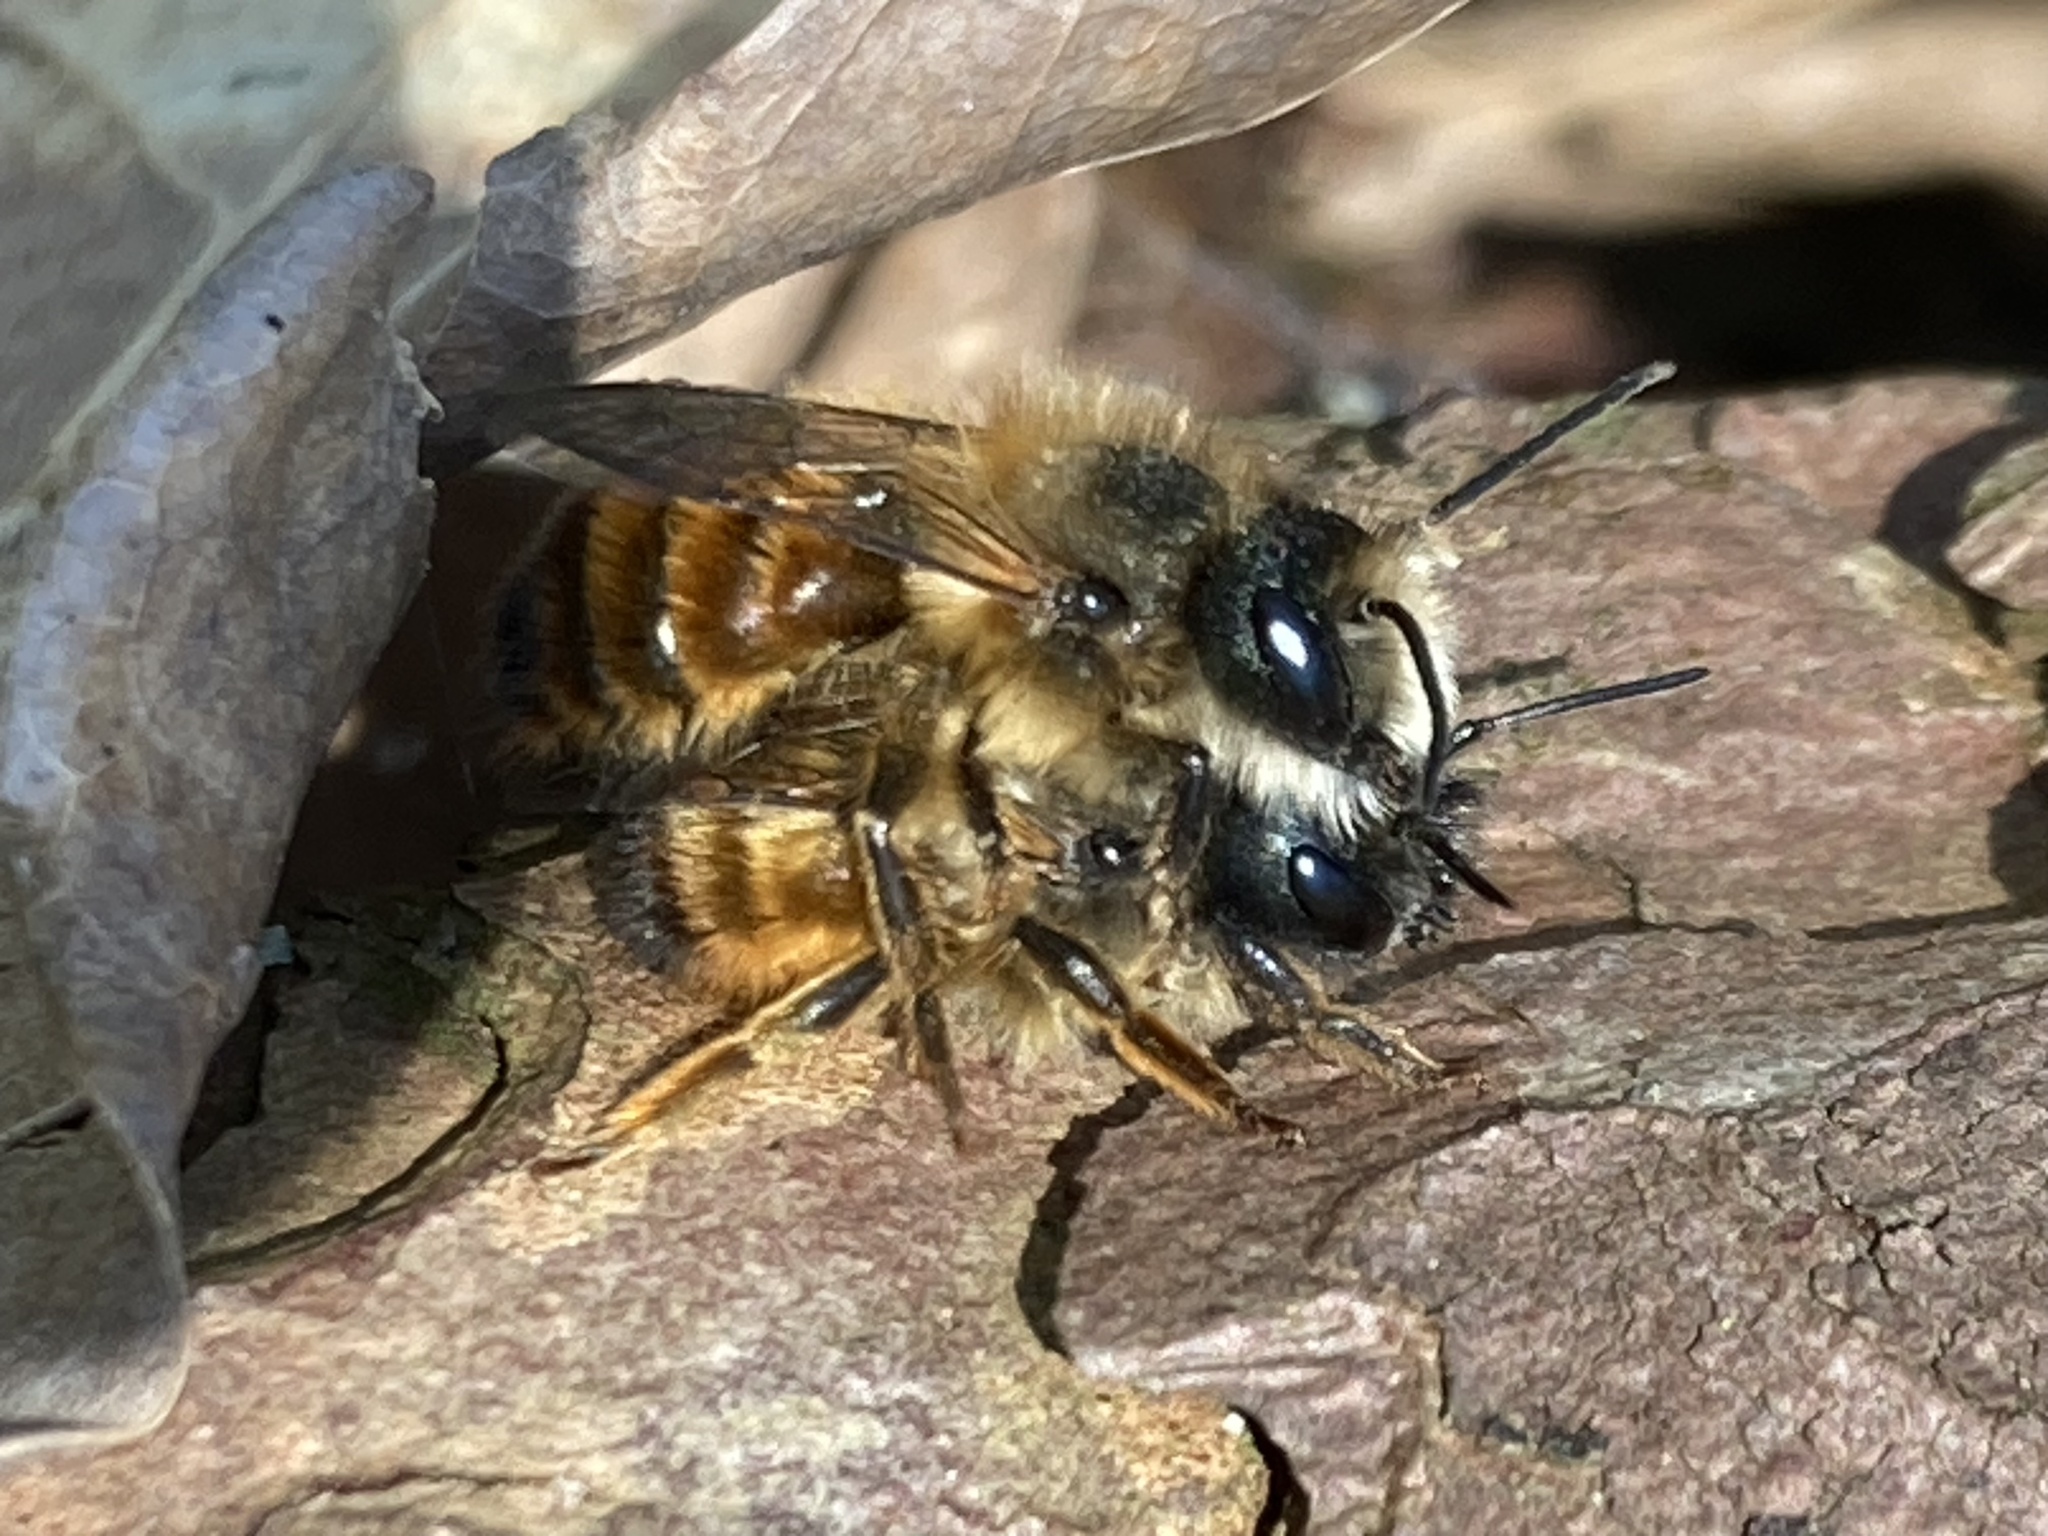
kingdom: Animalia
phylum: Arthropoda
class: Insecta
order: Hymenoptera
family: Megachilidae
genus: Osmia
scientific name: Osmia bicornis
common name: Red mason bee
